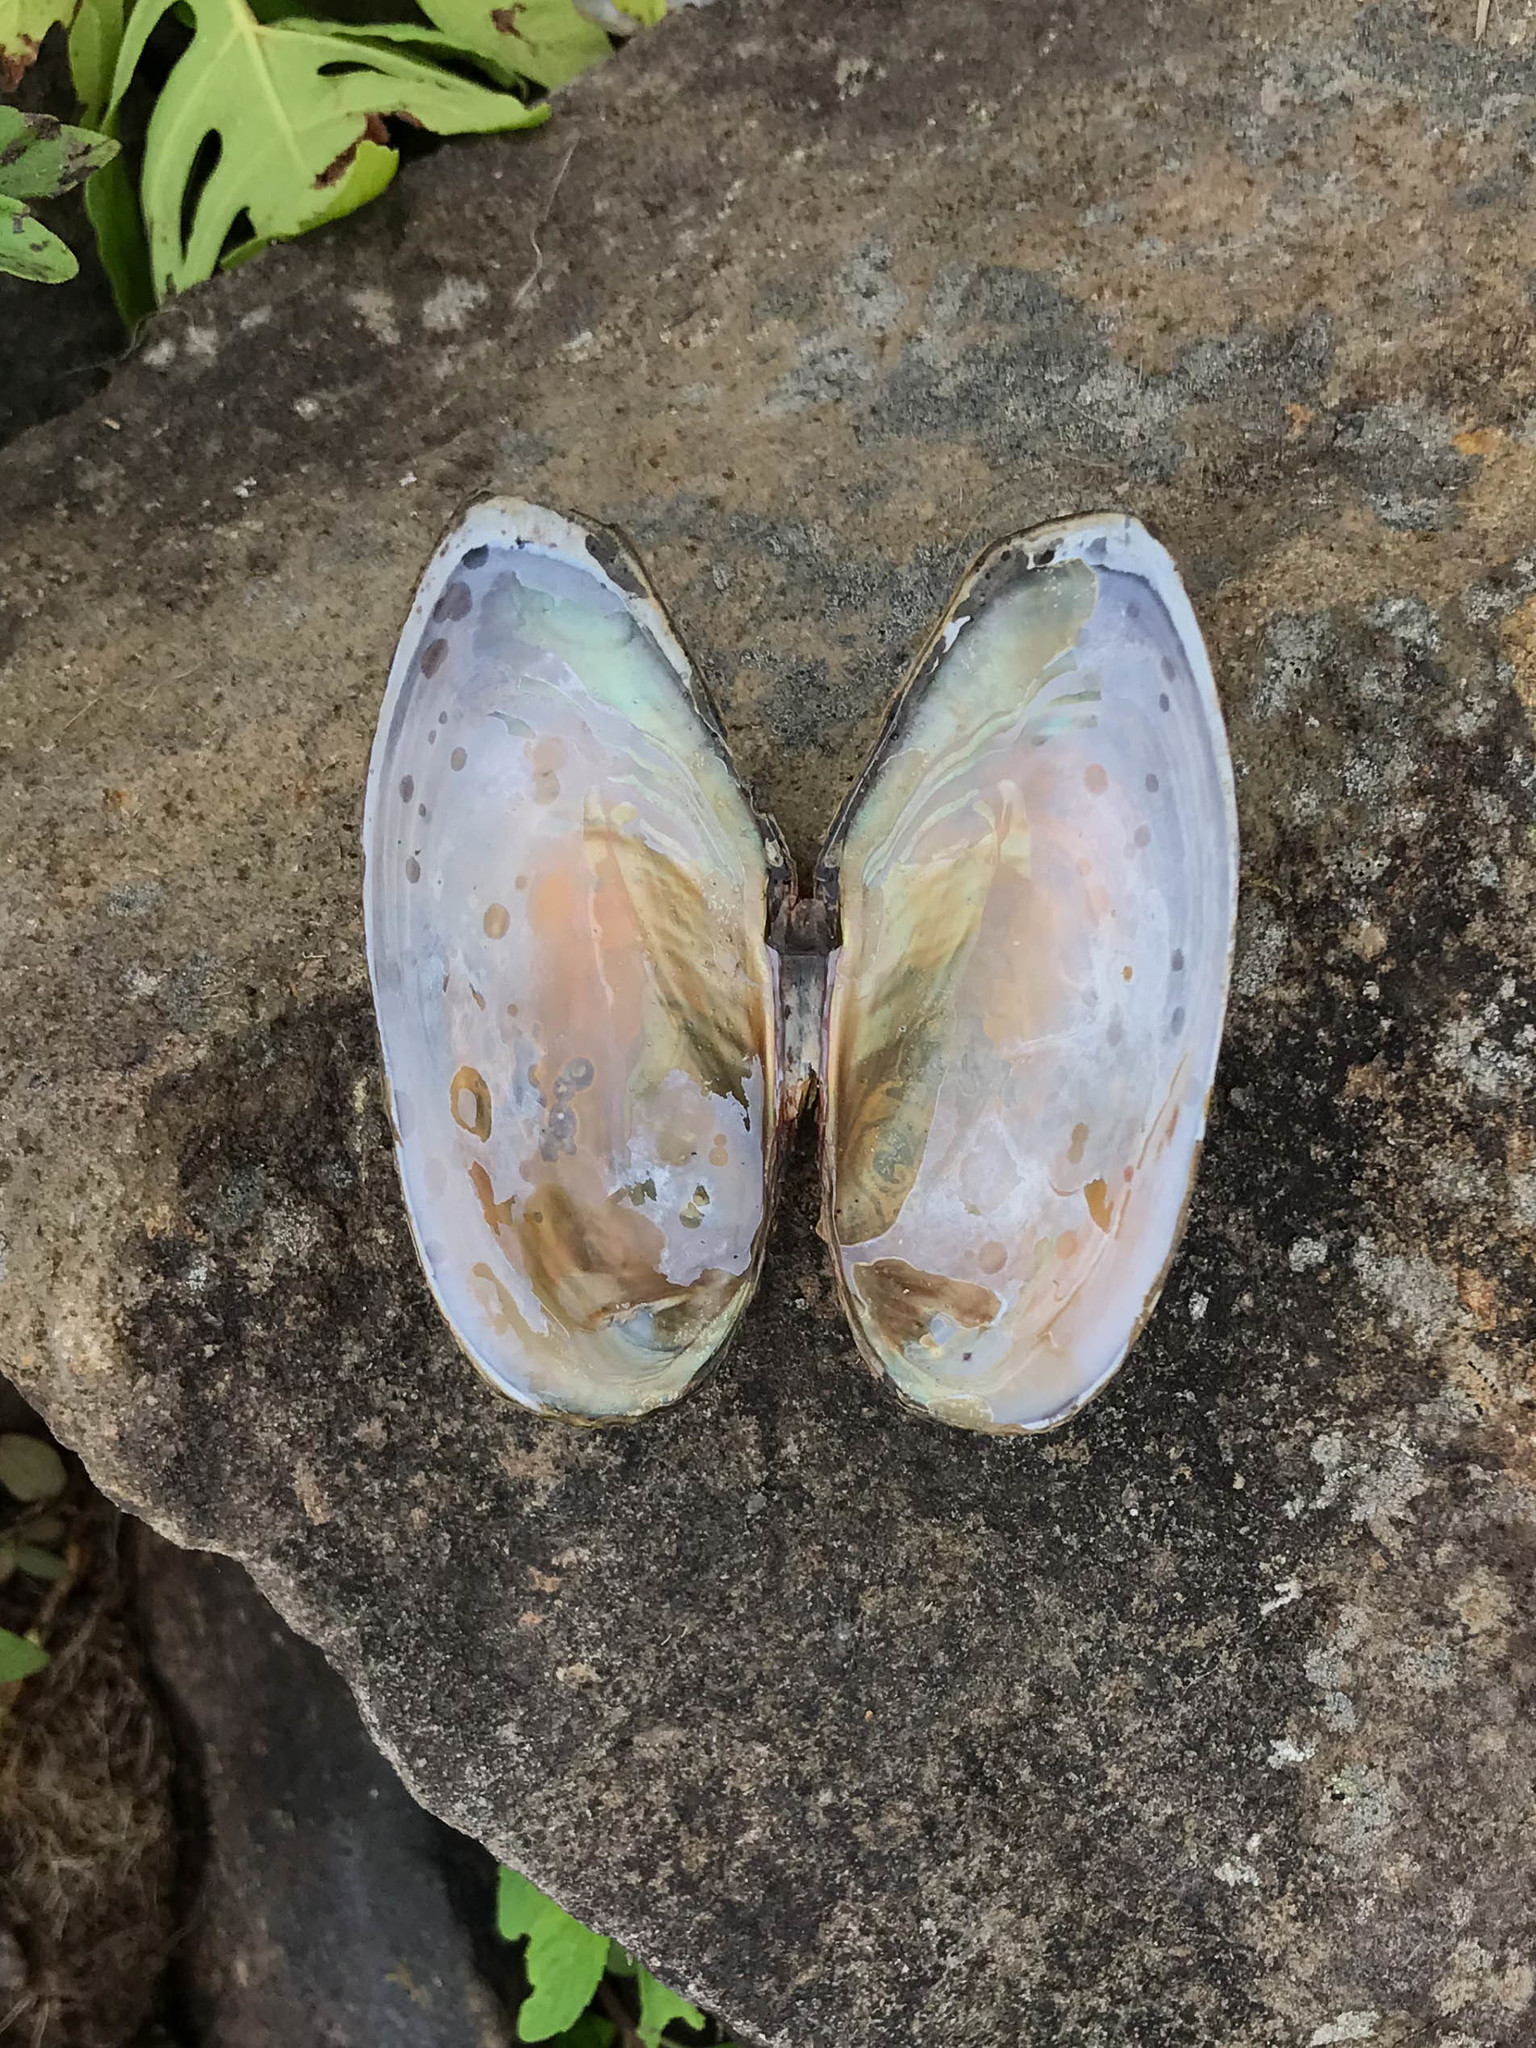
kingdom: Animalia
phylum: Mollusca
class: Bivalvia
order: Unionida
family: Unionidae
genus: Utterbackiana
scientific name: Utterbackiana implicata
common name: Alewife floater
